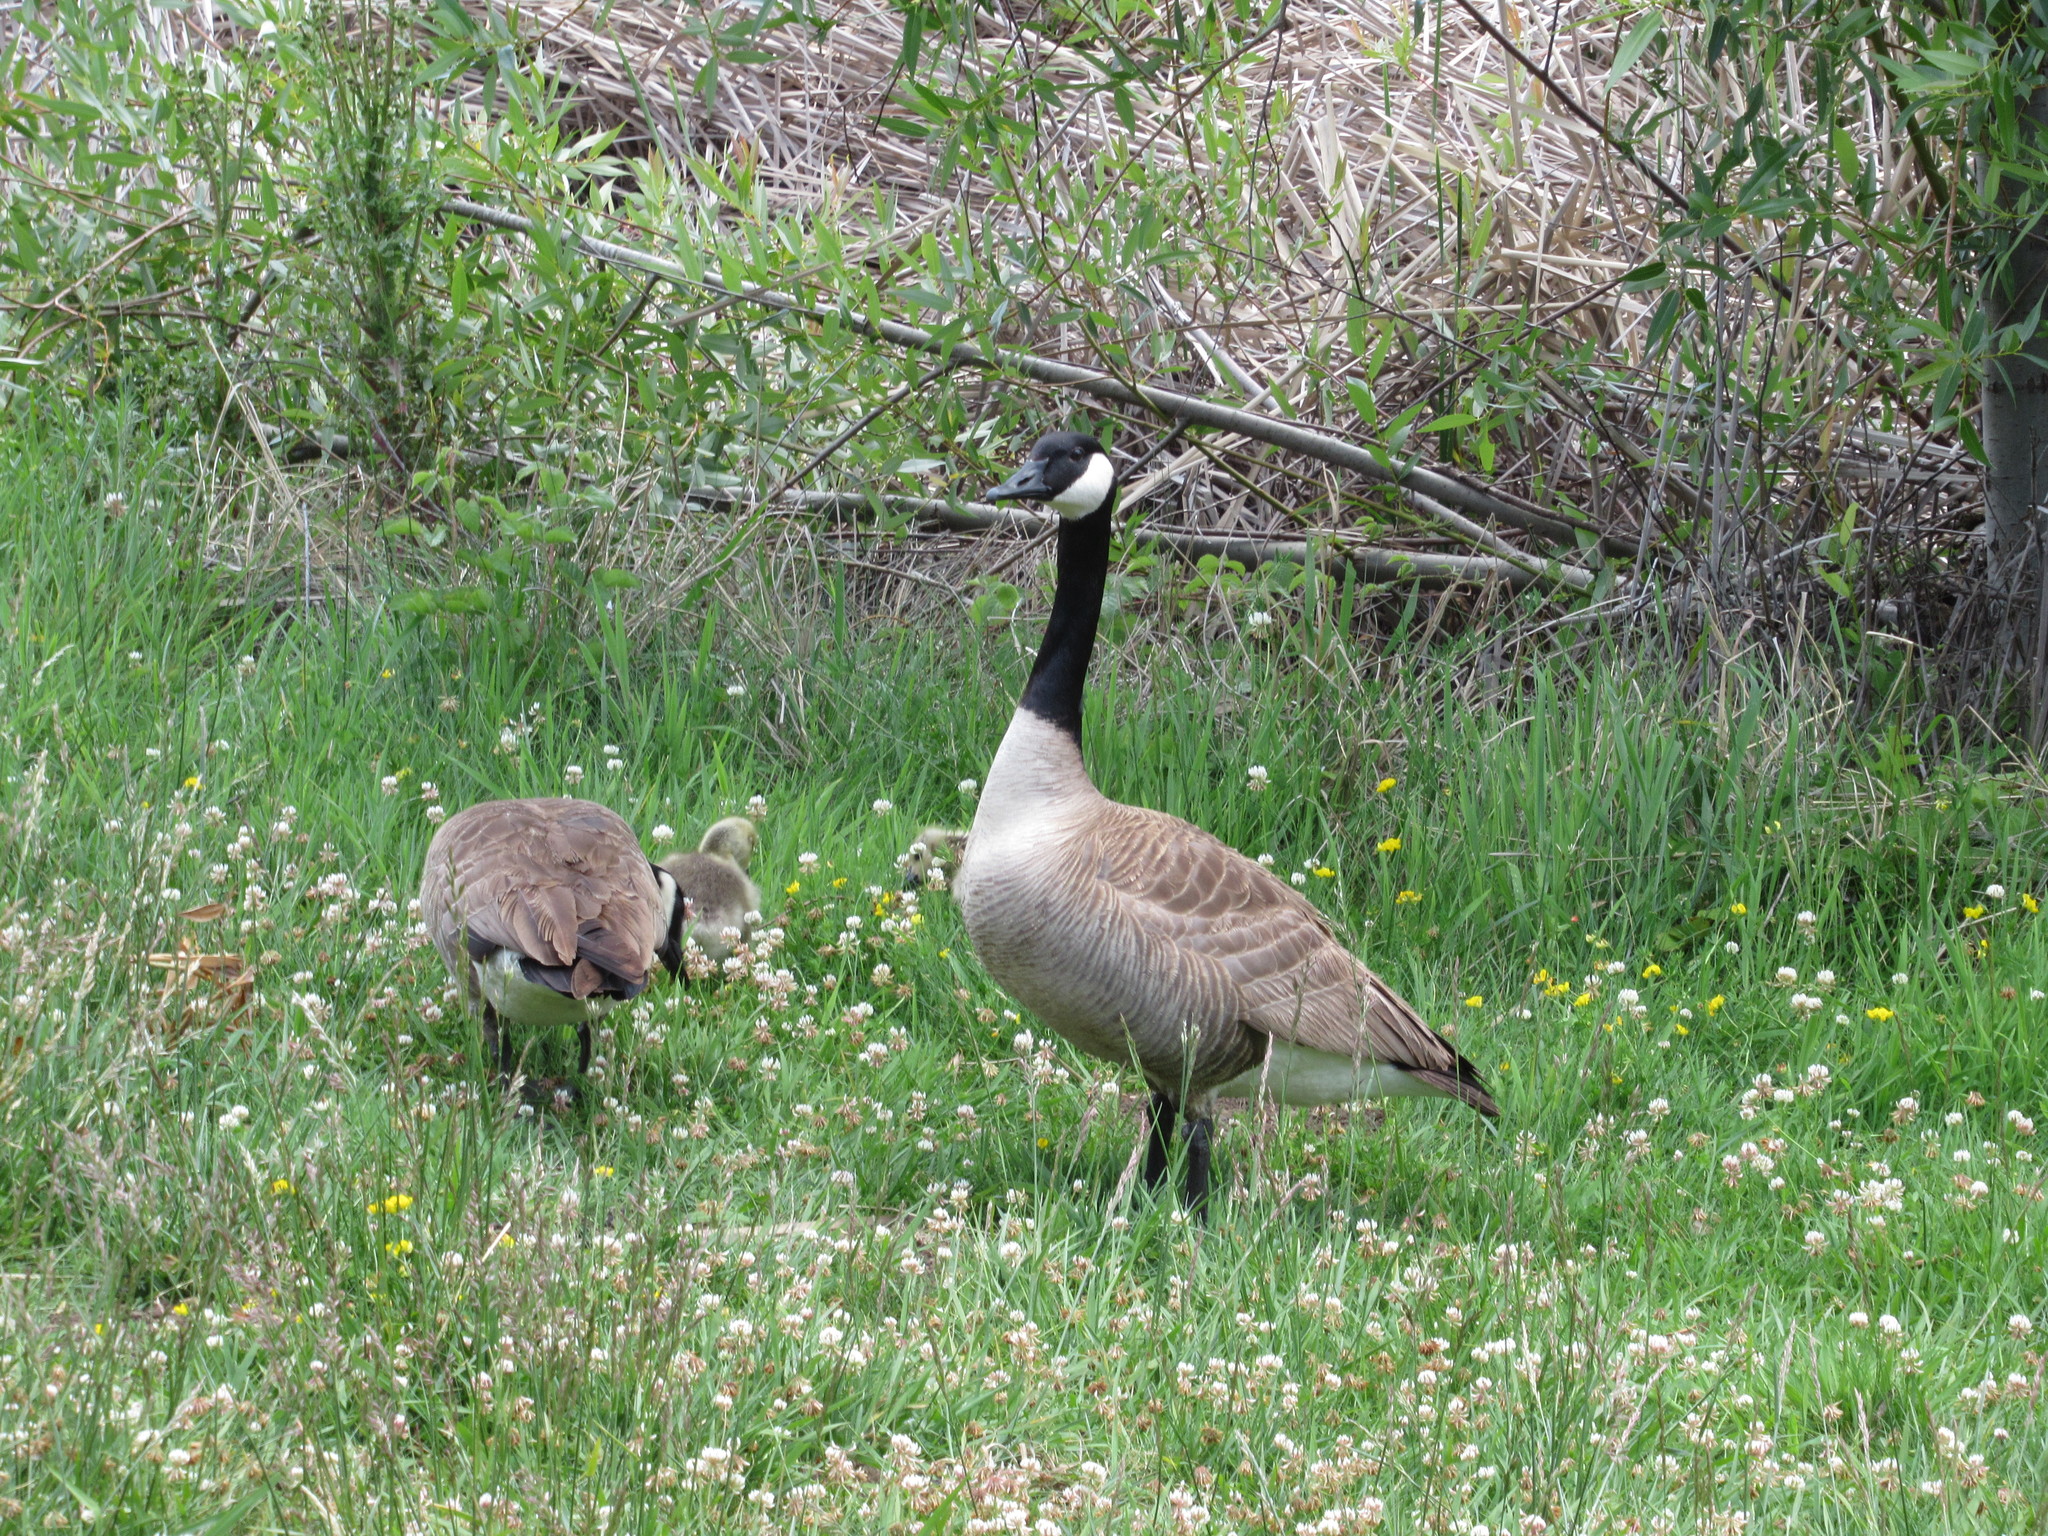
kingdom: Animalia
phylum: Chordata
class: Aves
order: Anseriformes
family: Anatidae
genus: Branta
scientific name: Branta canadensis
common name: Canada goose
